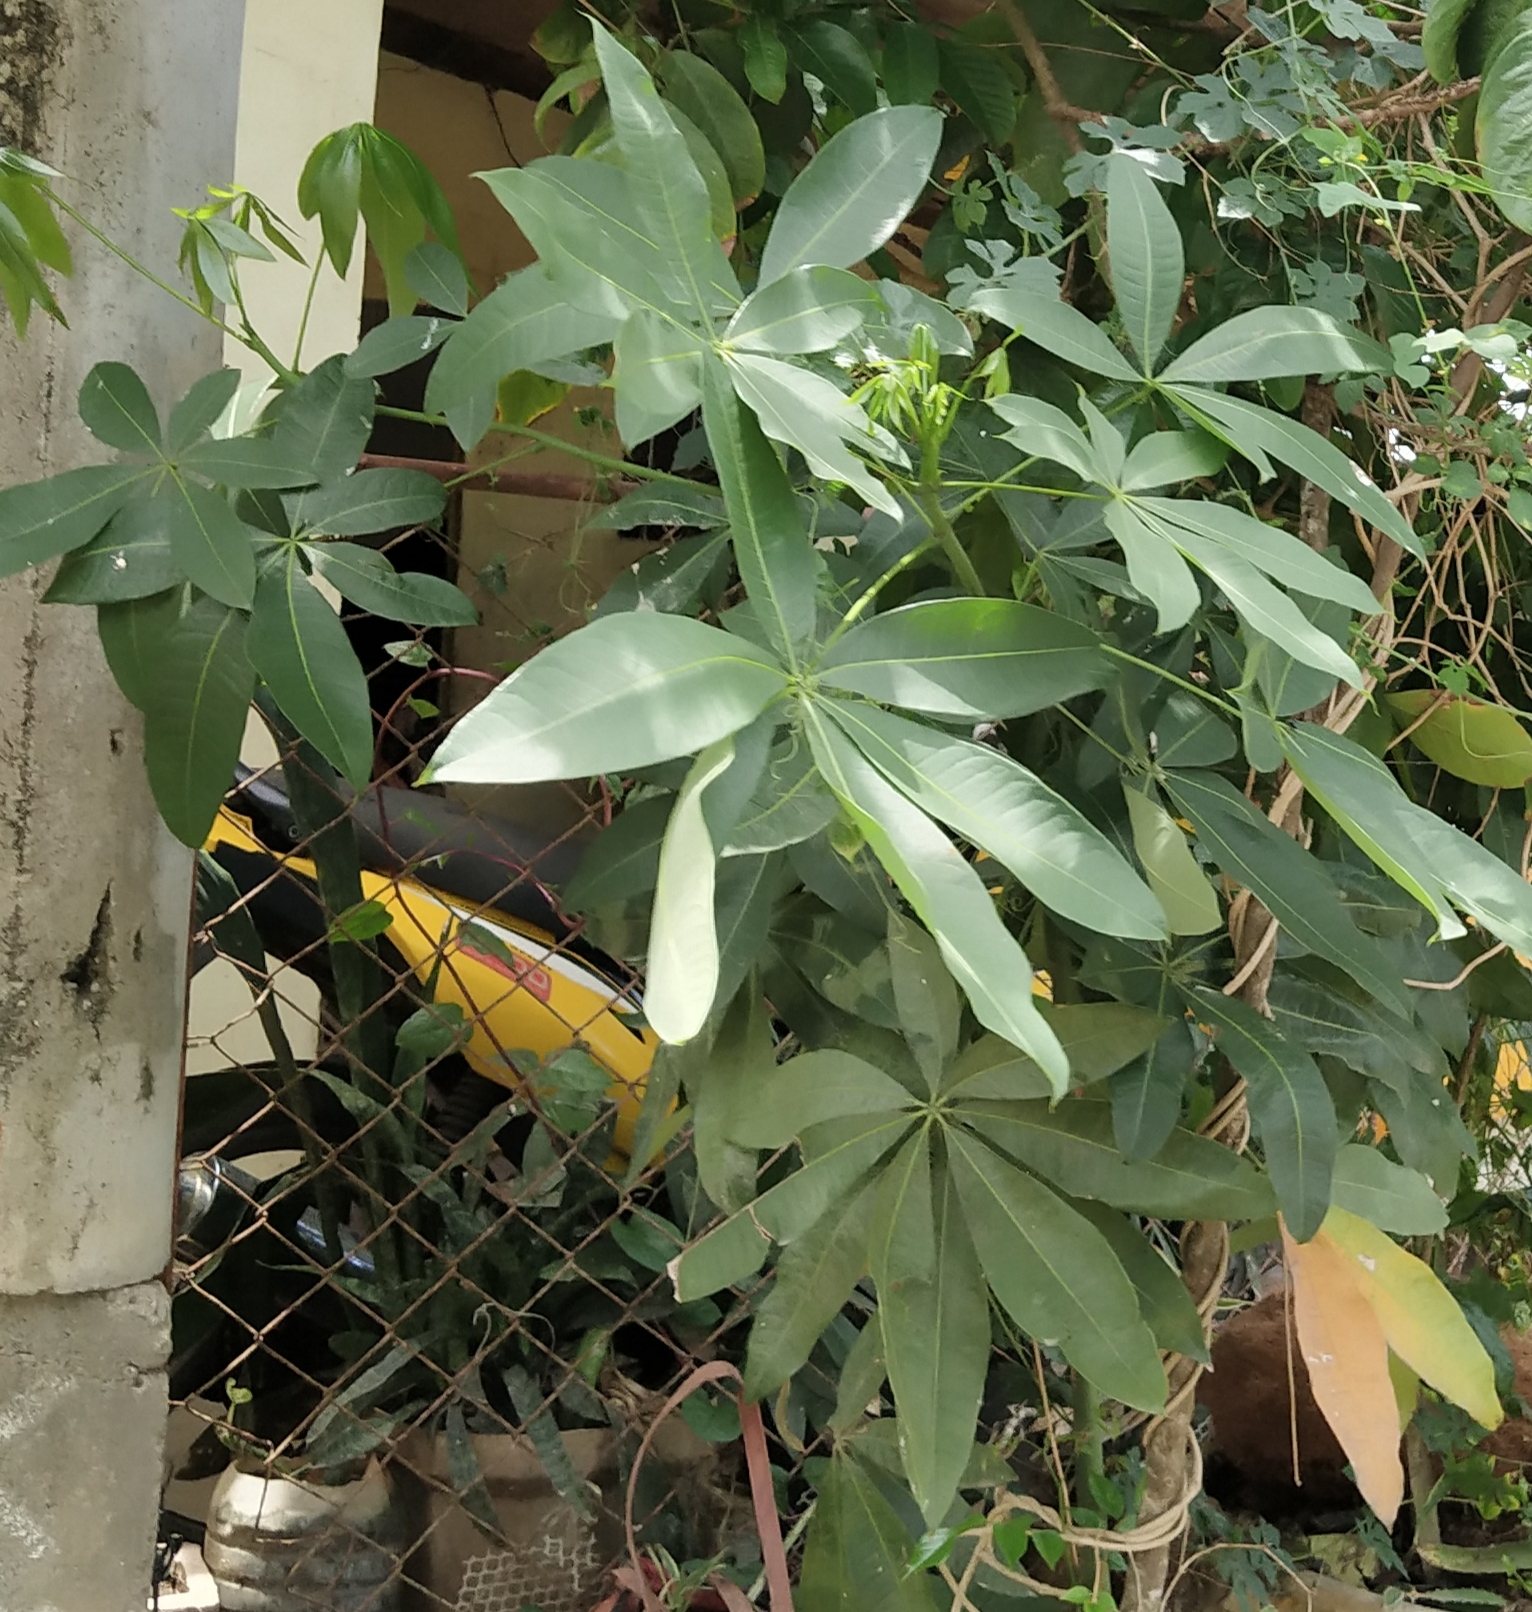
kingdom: Plantae
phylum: Tracheophyta
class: Magnoliopsida
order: Malvales
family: Malvaceae
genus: Pachira
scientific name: Pachira aquatica
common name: Provision-tree
